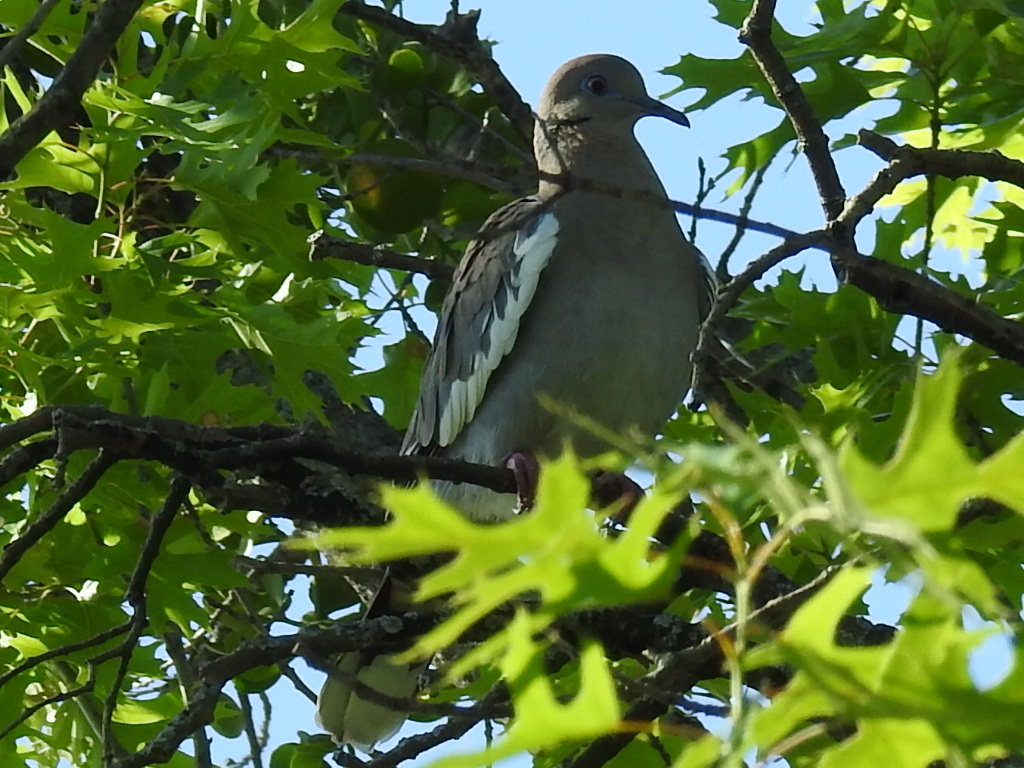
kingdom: Animalia
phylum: Chordata
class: Aves
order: Columbiformes
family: Columbidae
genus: Zenaida
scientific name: Zenaida asiatica
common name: White-winged dove
